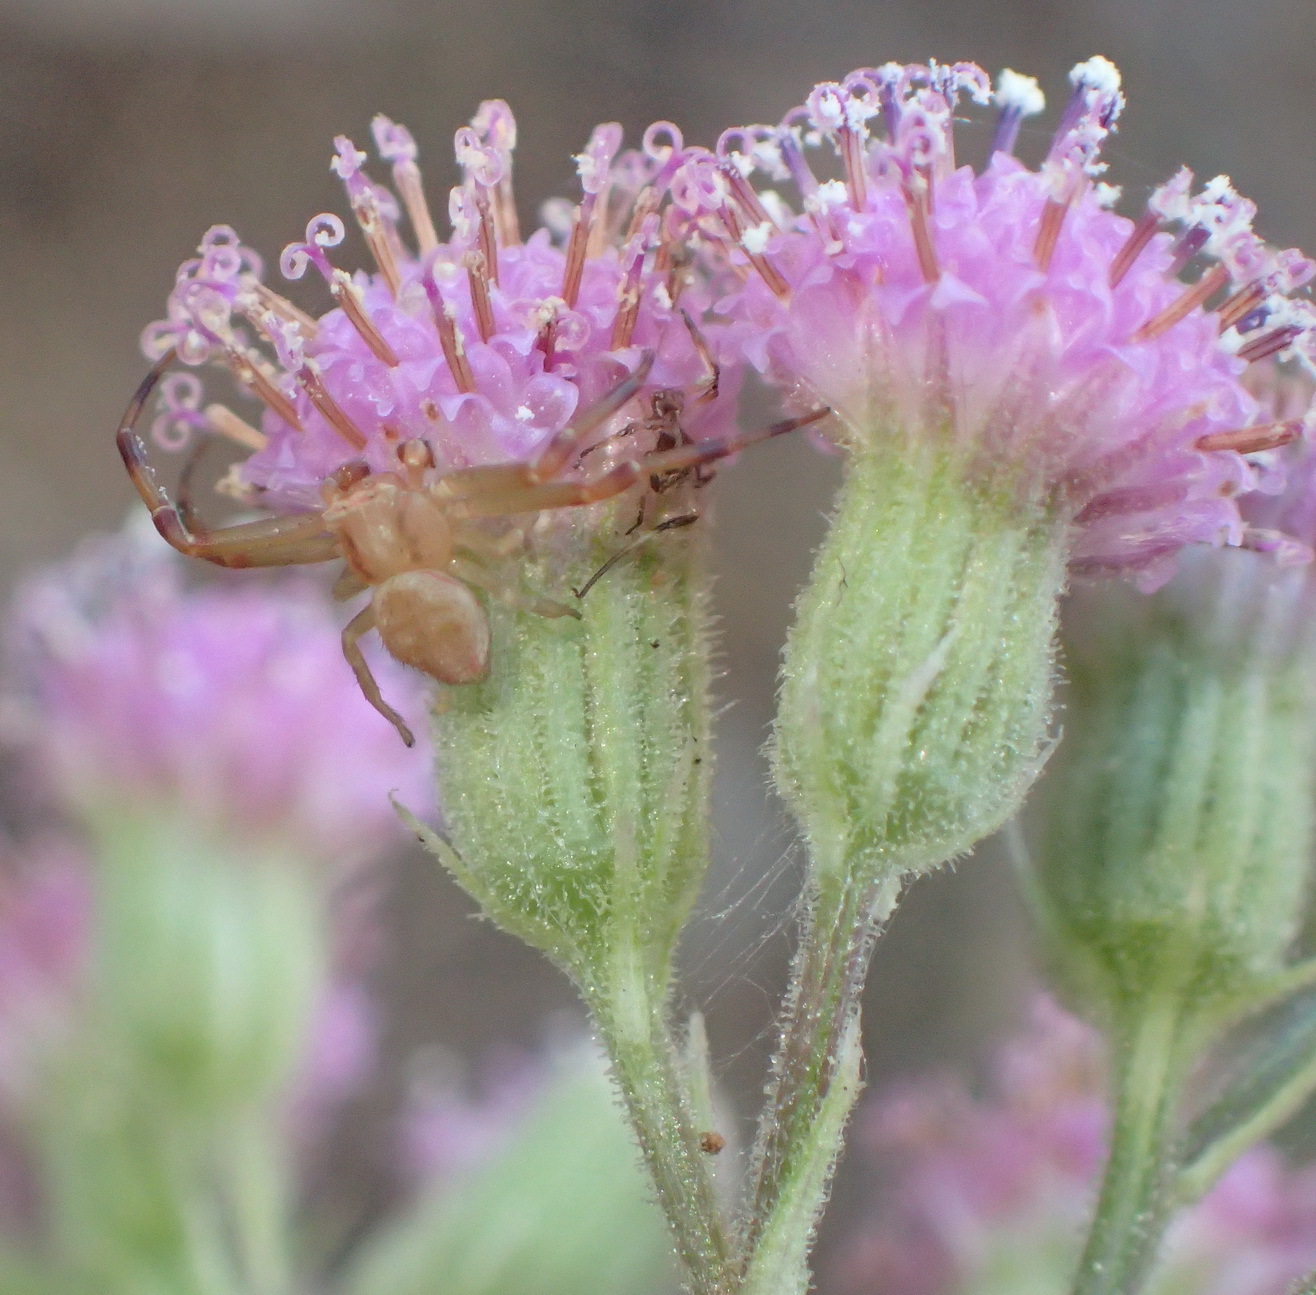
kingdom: Plantae
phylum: Tracheophyta
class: Magnoliopsida
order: Asterales
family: Asteraceae
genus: Senecio
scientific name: Senecio purpureus
